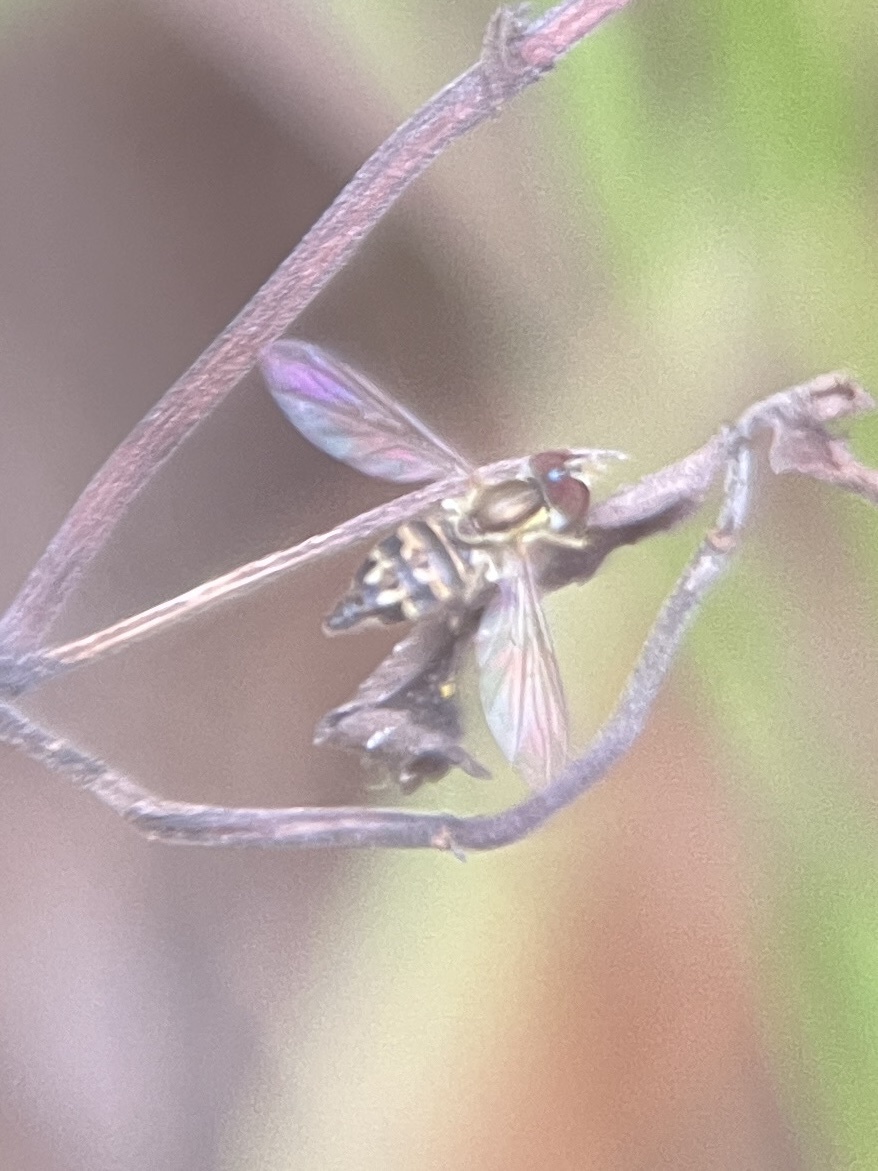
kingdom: Animalia
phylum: Arthropoda
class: Insecta
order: Diptera
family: Syrphidae
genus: Toxomerus
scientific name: Toxomerus geminatus
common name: Eastern calligrapher
